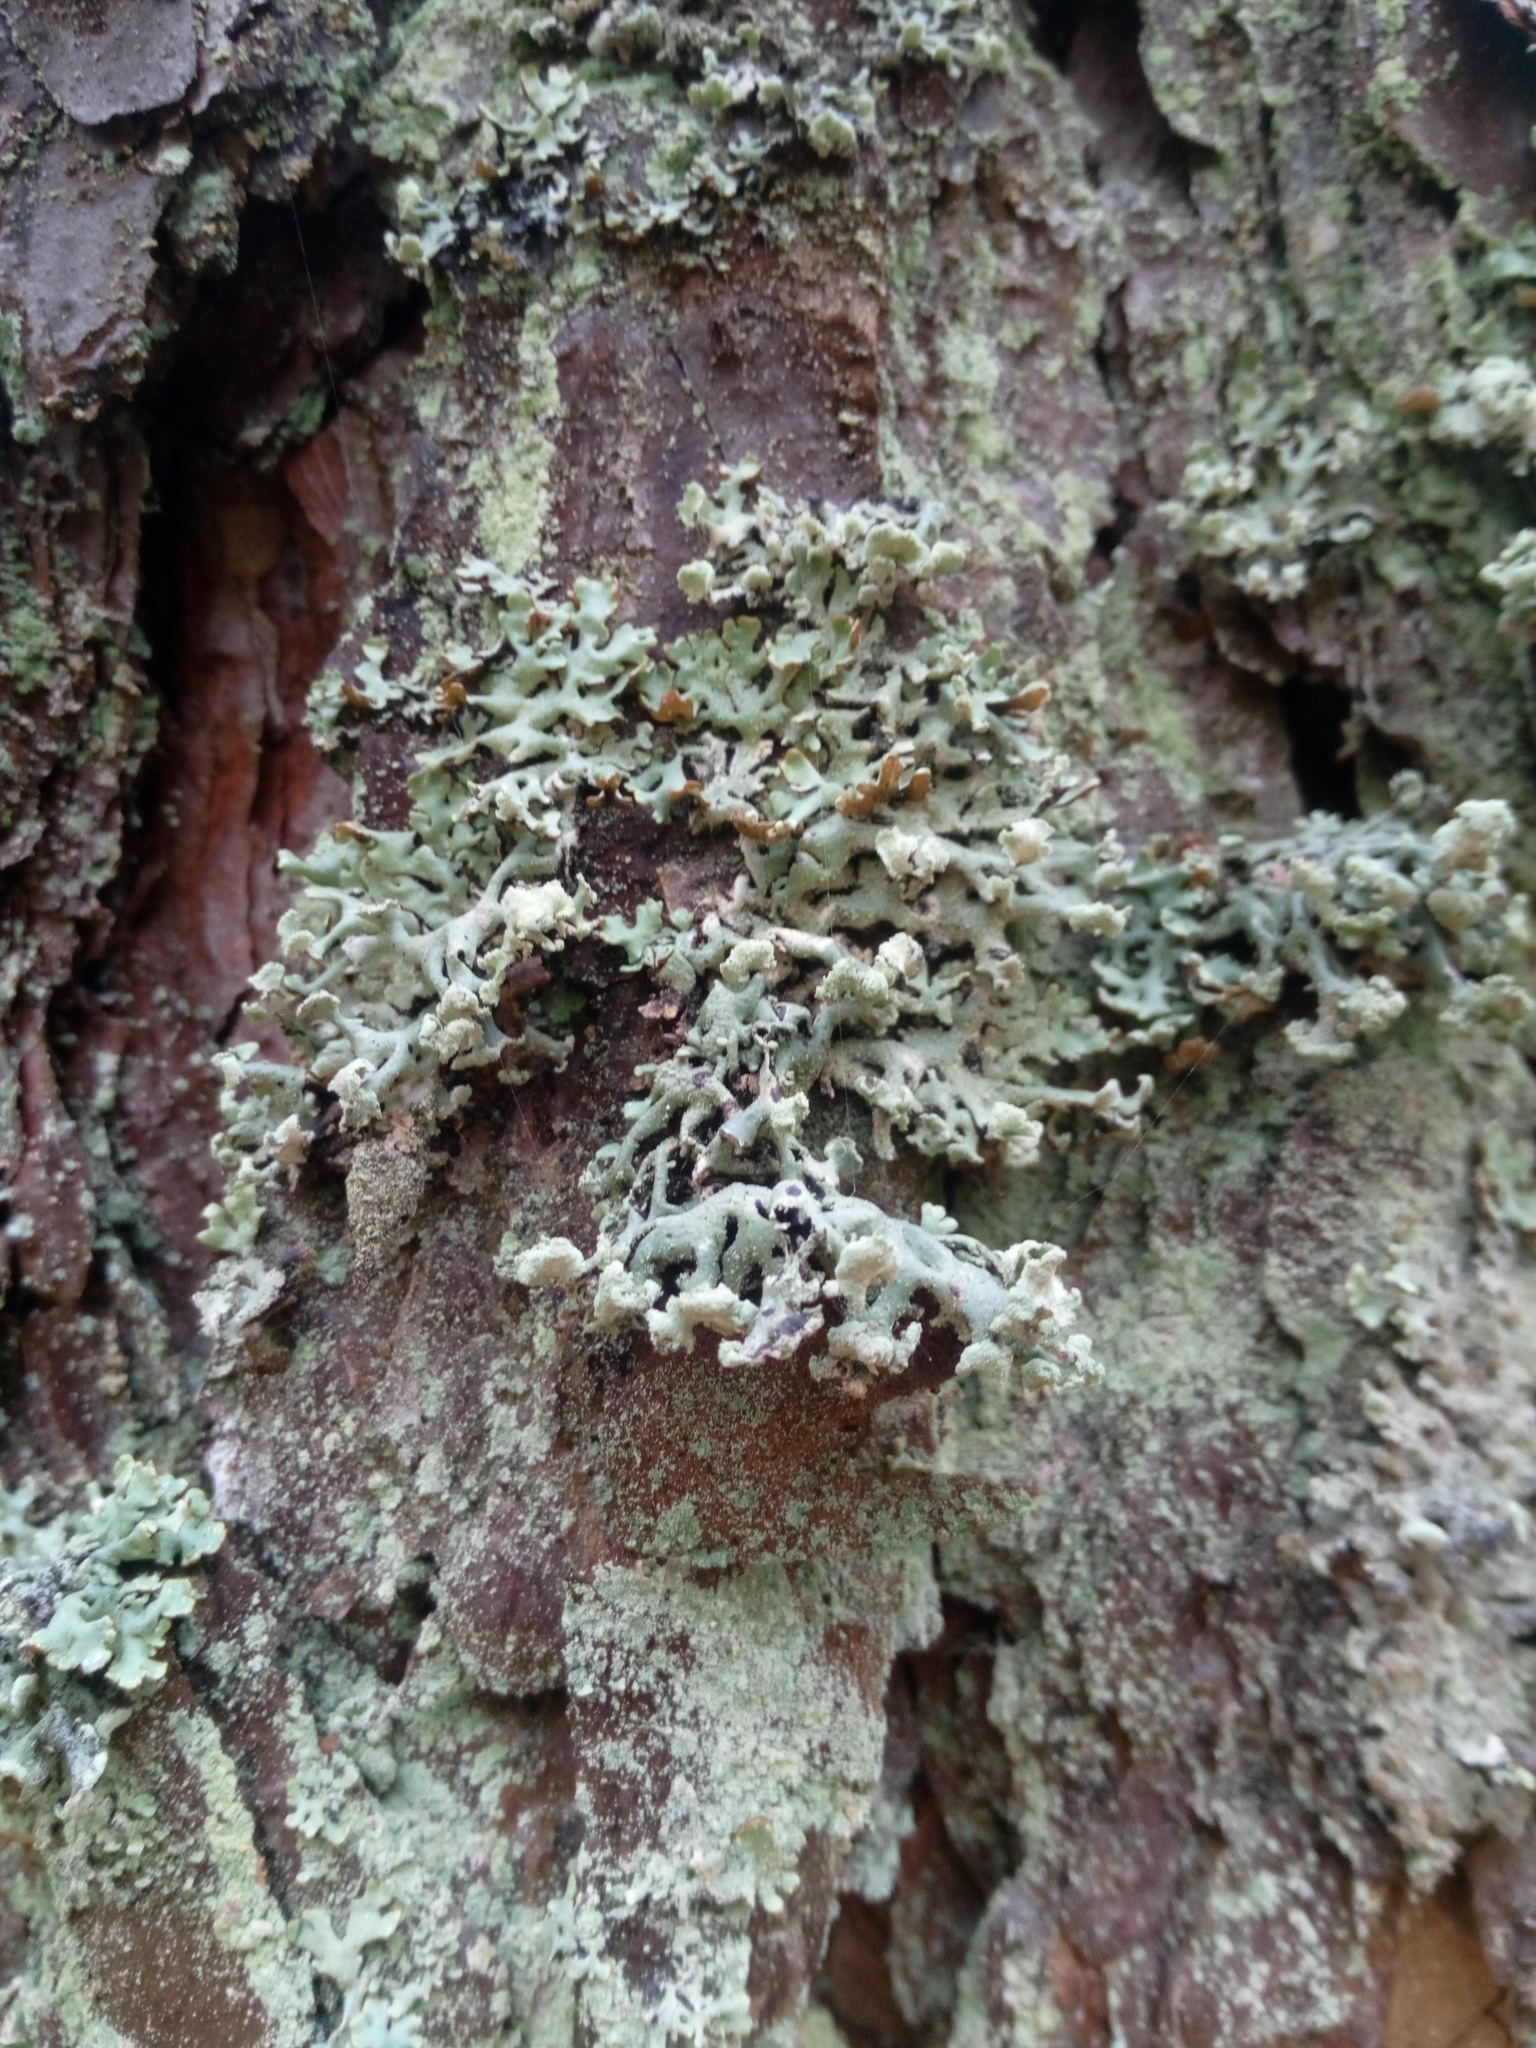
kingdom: Fungi
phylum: Ascomycota
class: Lecanoromycetes
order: Lecanorales
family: Parmeliaceae
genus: Hypogymnia
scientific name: Hypogymnia physodes
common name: Dark crottle
